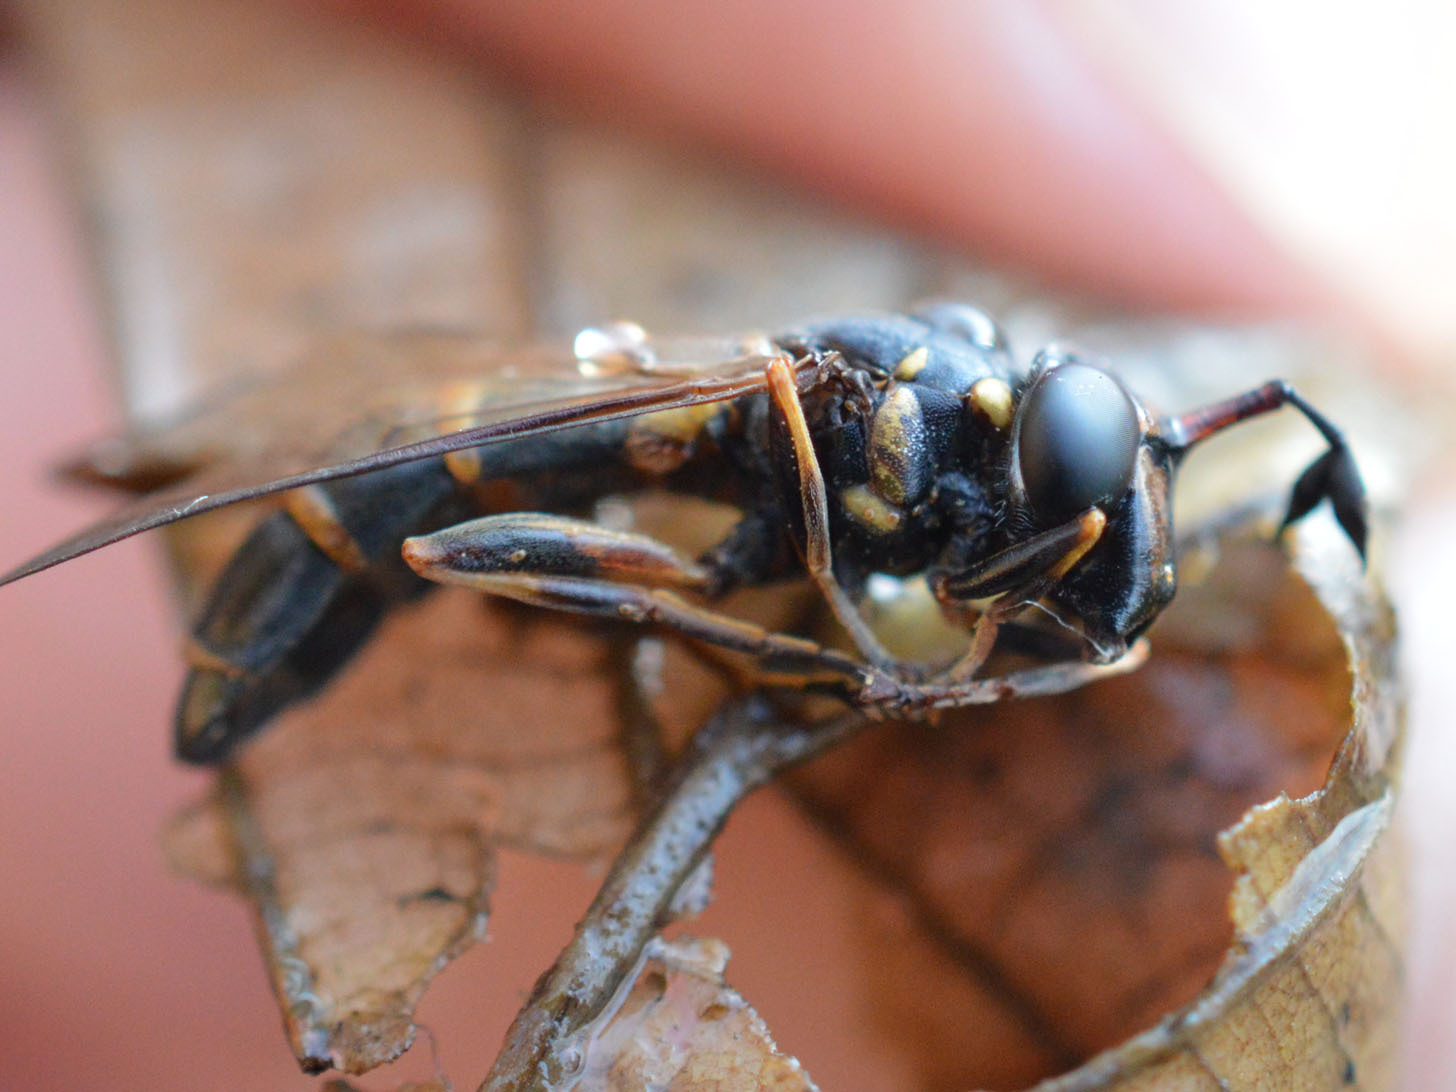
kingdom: Animalia
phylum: Arthropoda
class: Insecta
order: Diptera
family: Syrphidae
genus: Ceriana
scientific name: Ceriana conopsoides
